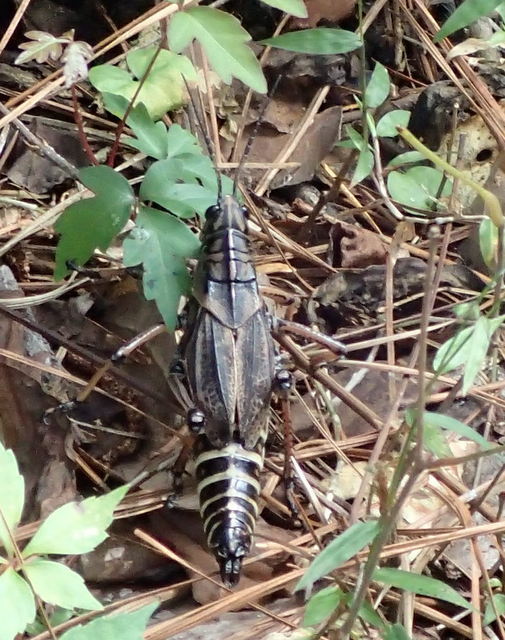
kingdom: Animalia
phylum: Arthropoda
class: Insecta
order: Orthoptera
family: Romaleidae
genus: Romalea
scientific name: Romalea microptera
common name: Eastern lubber grasshopper
